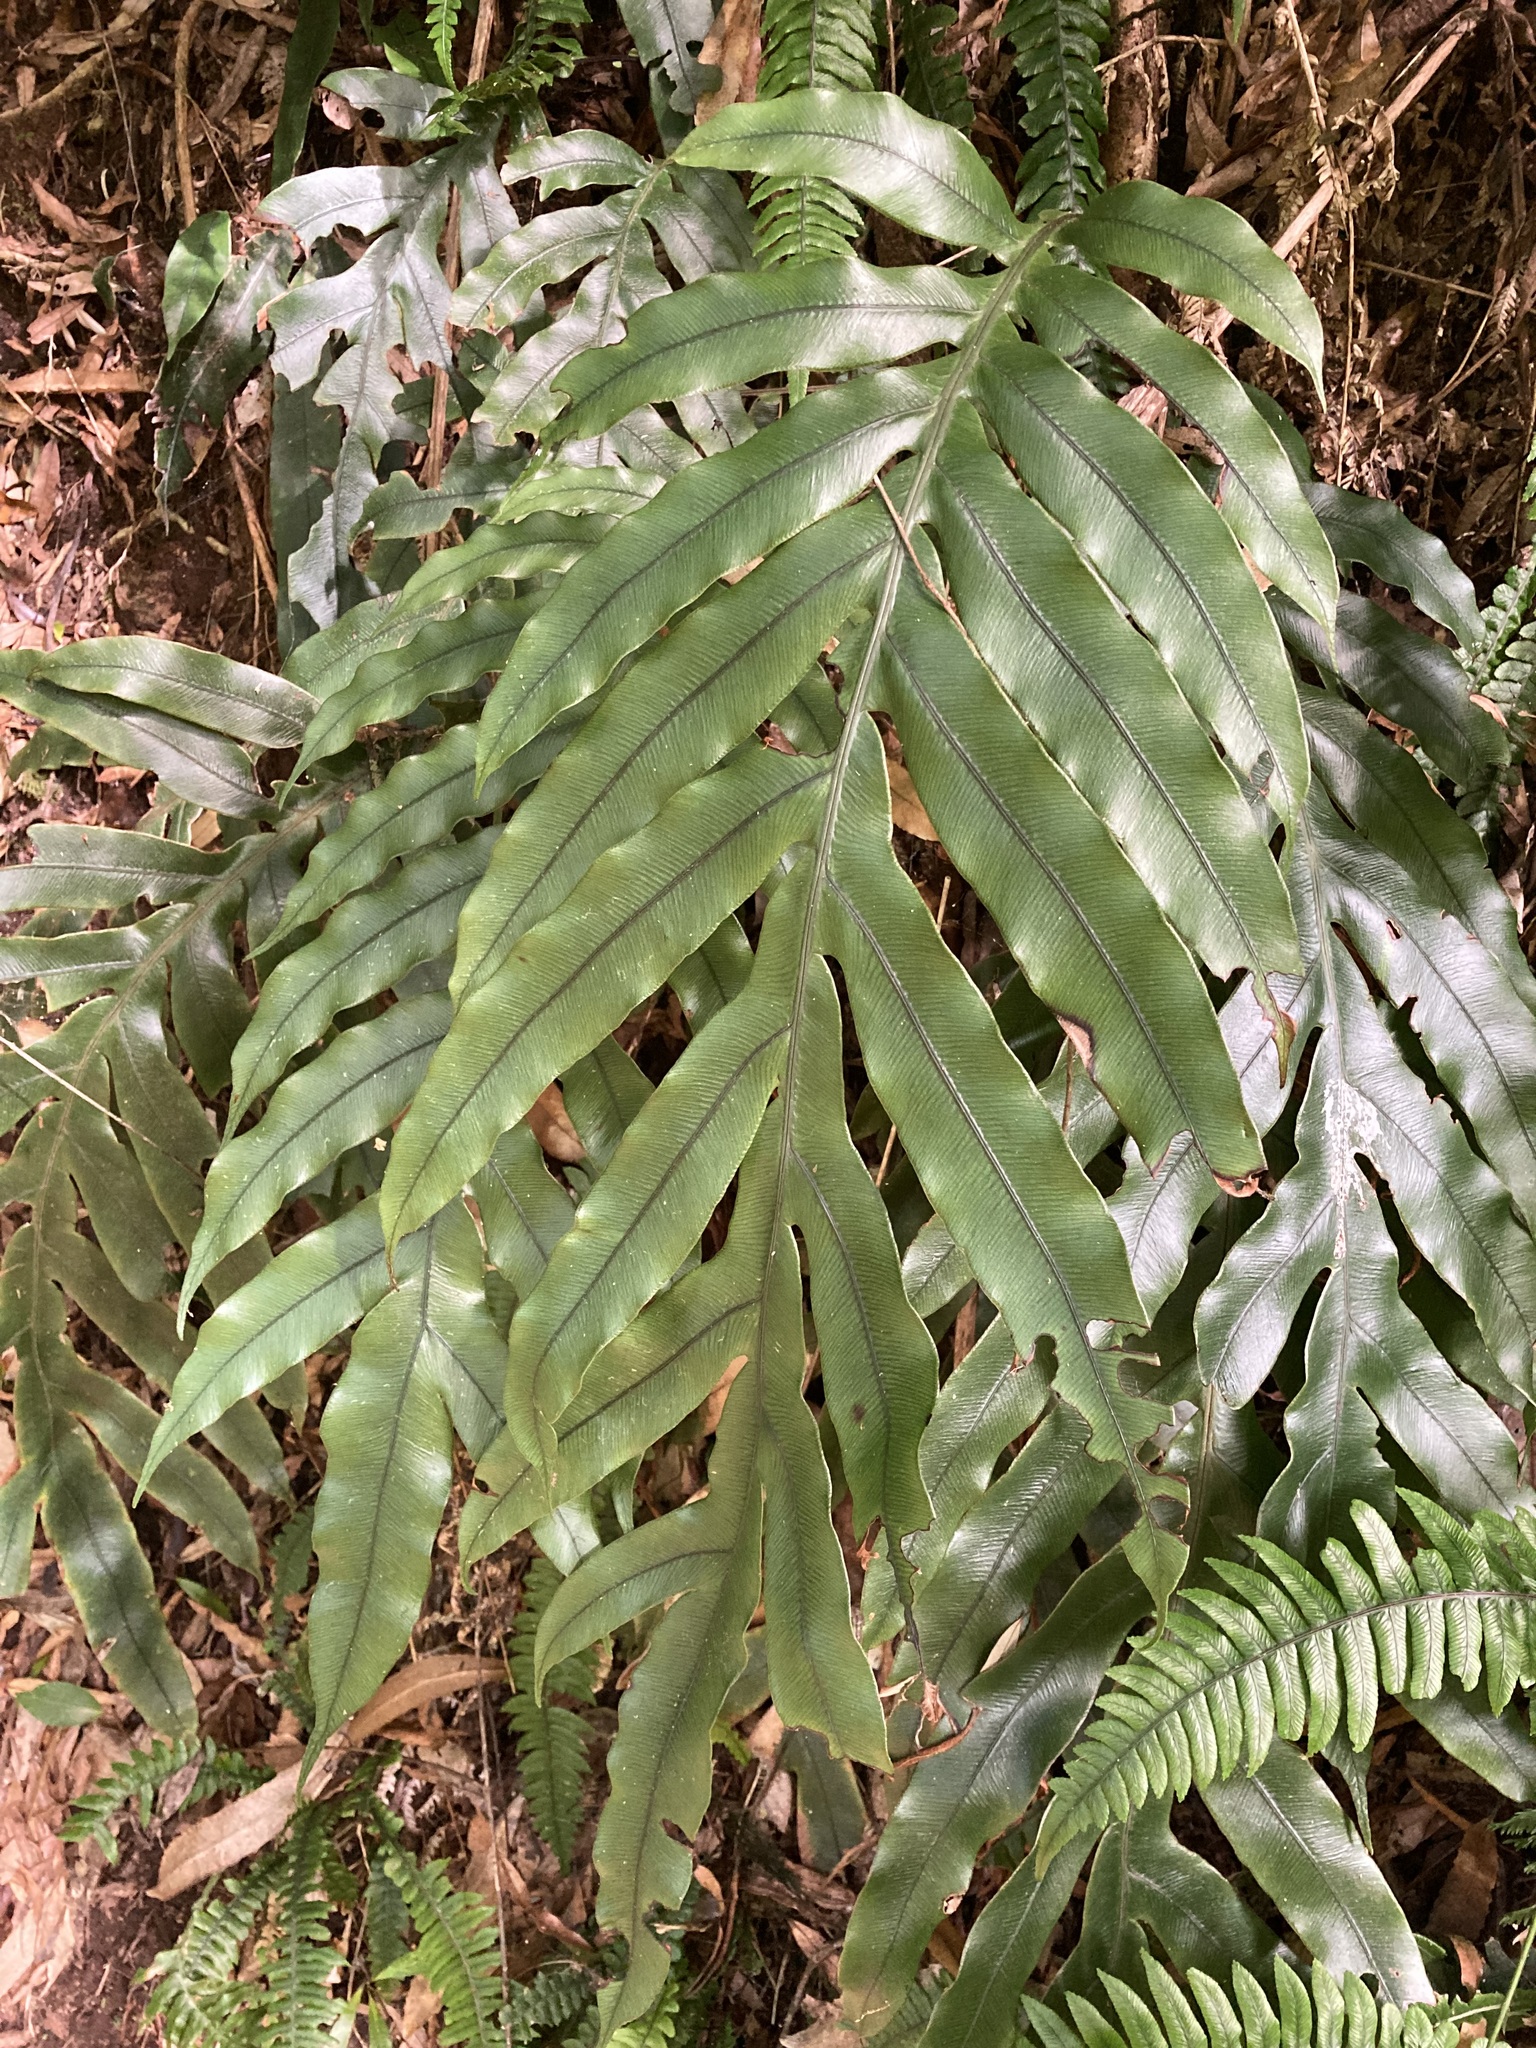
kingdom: Plantae
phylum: Tracheophyta
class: Polypodiopsida
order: Polypodiales
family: Blechnaceae
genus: Austroblechnum
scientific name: Austroblechnum colensoi
